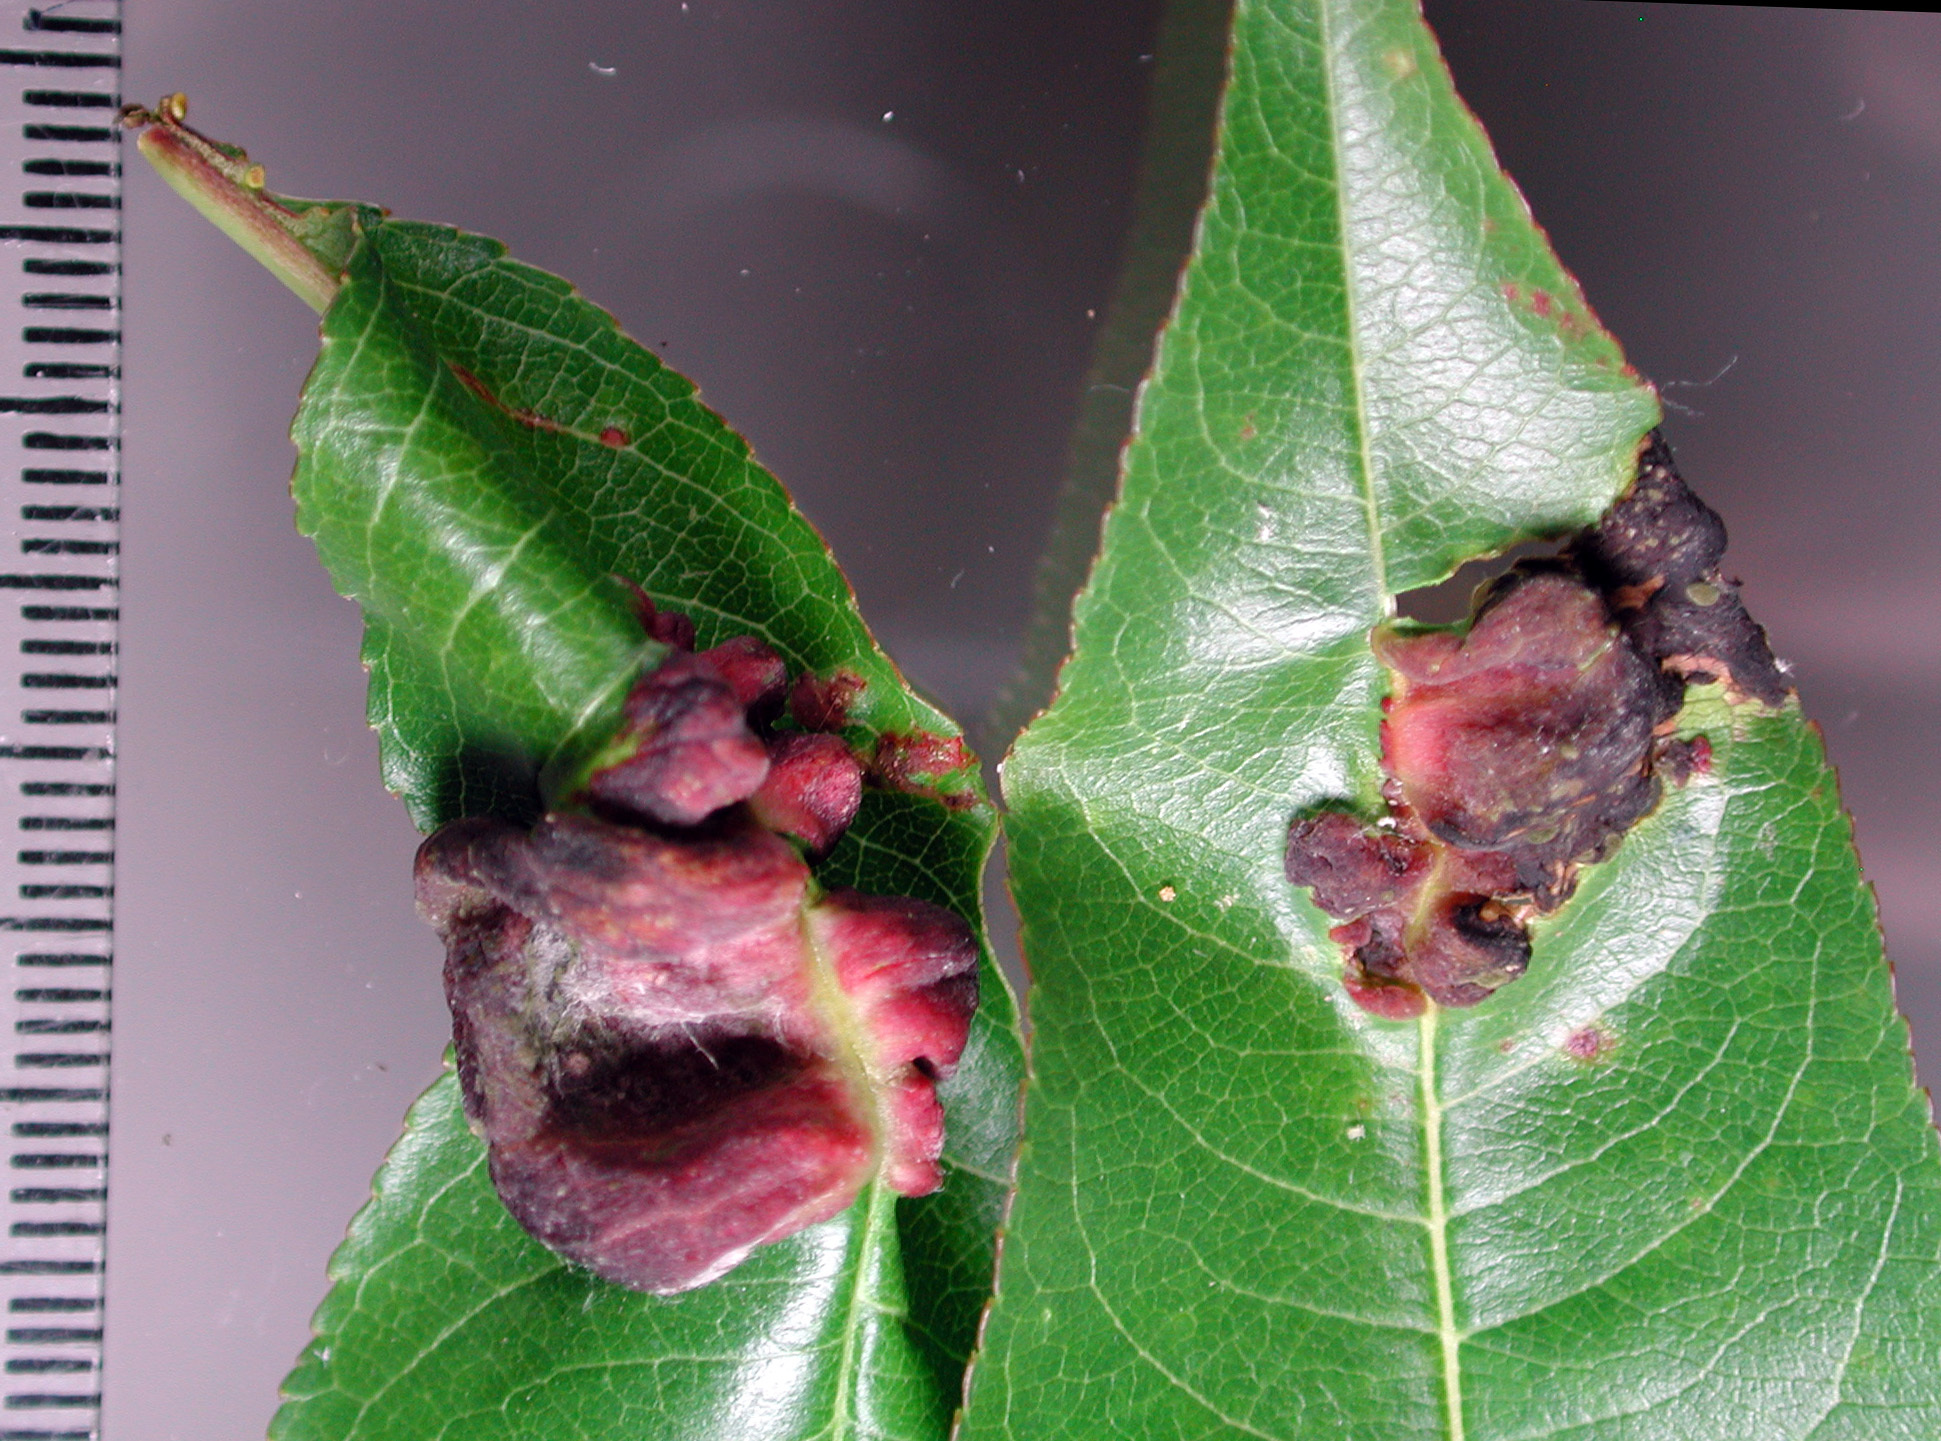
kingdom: Fungi
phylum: Ascomycota
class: Taphrinomycetes
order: Taphrinales
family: Taphrinaceae
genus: Taphrina
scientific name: Taphrina deformans
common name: Peach leaf curl
